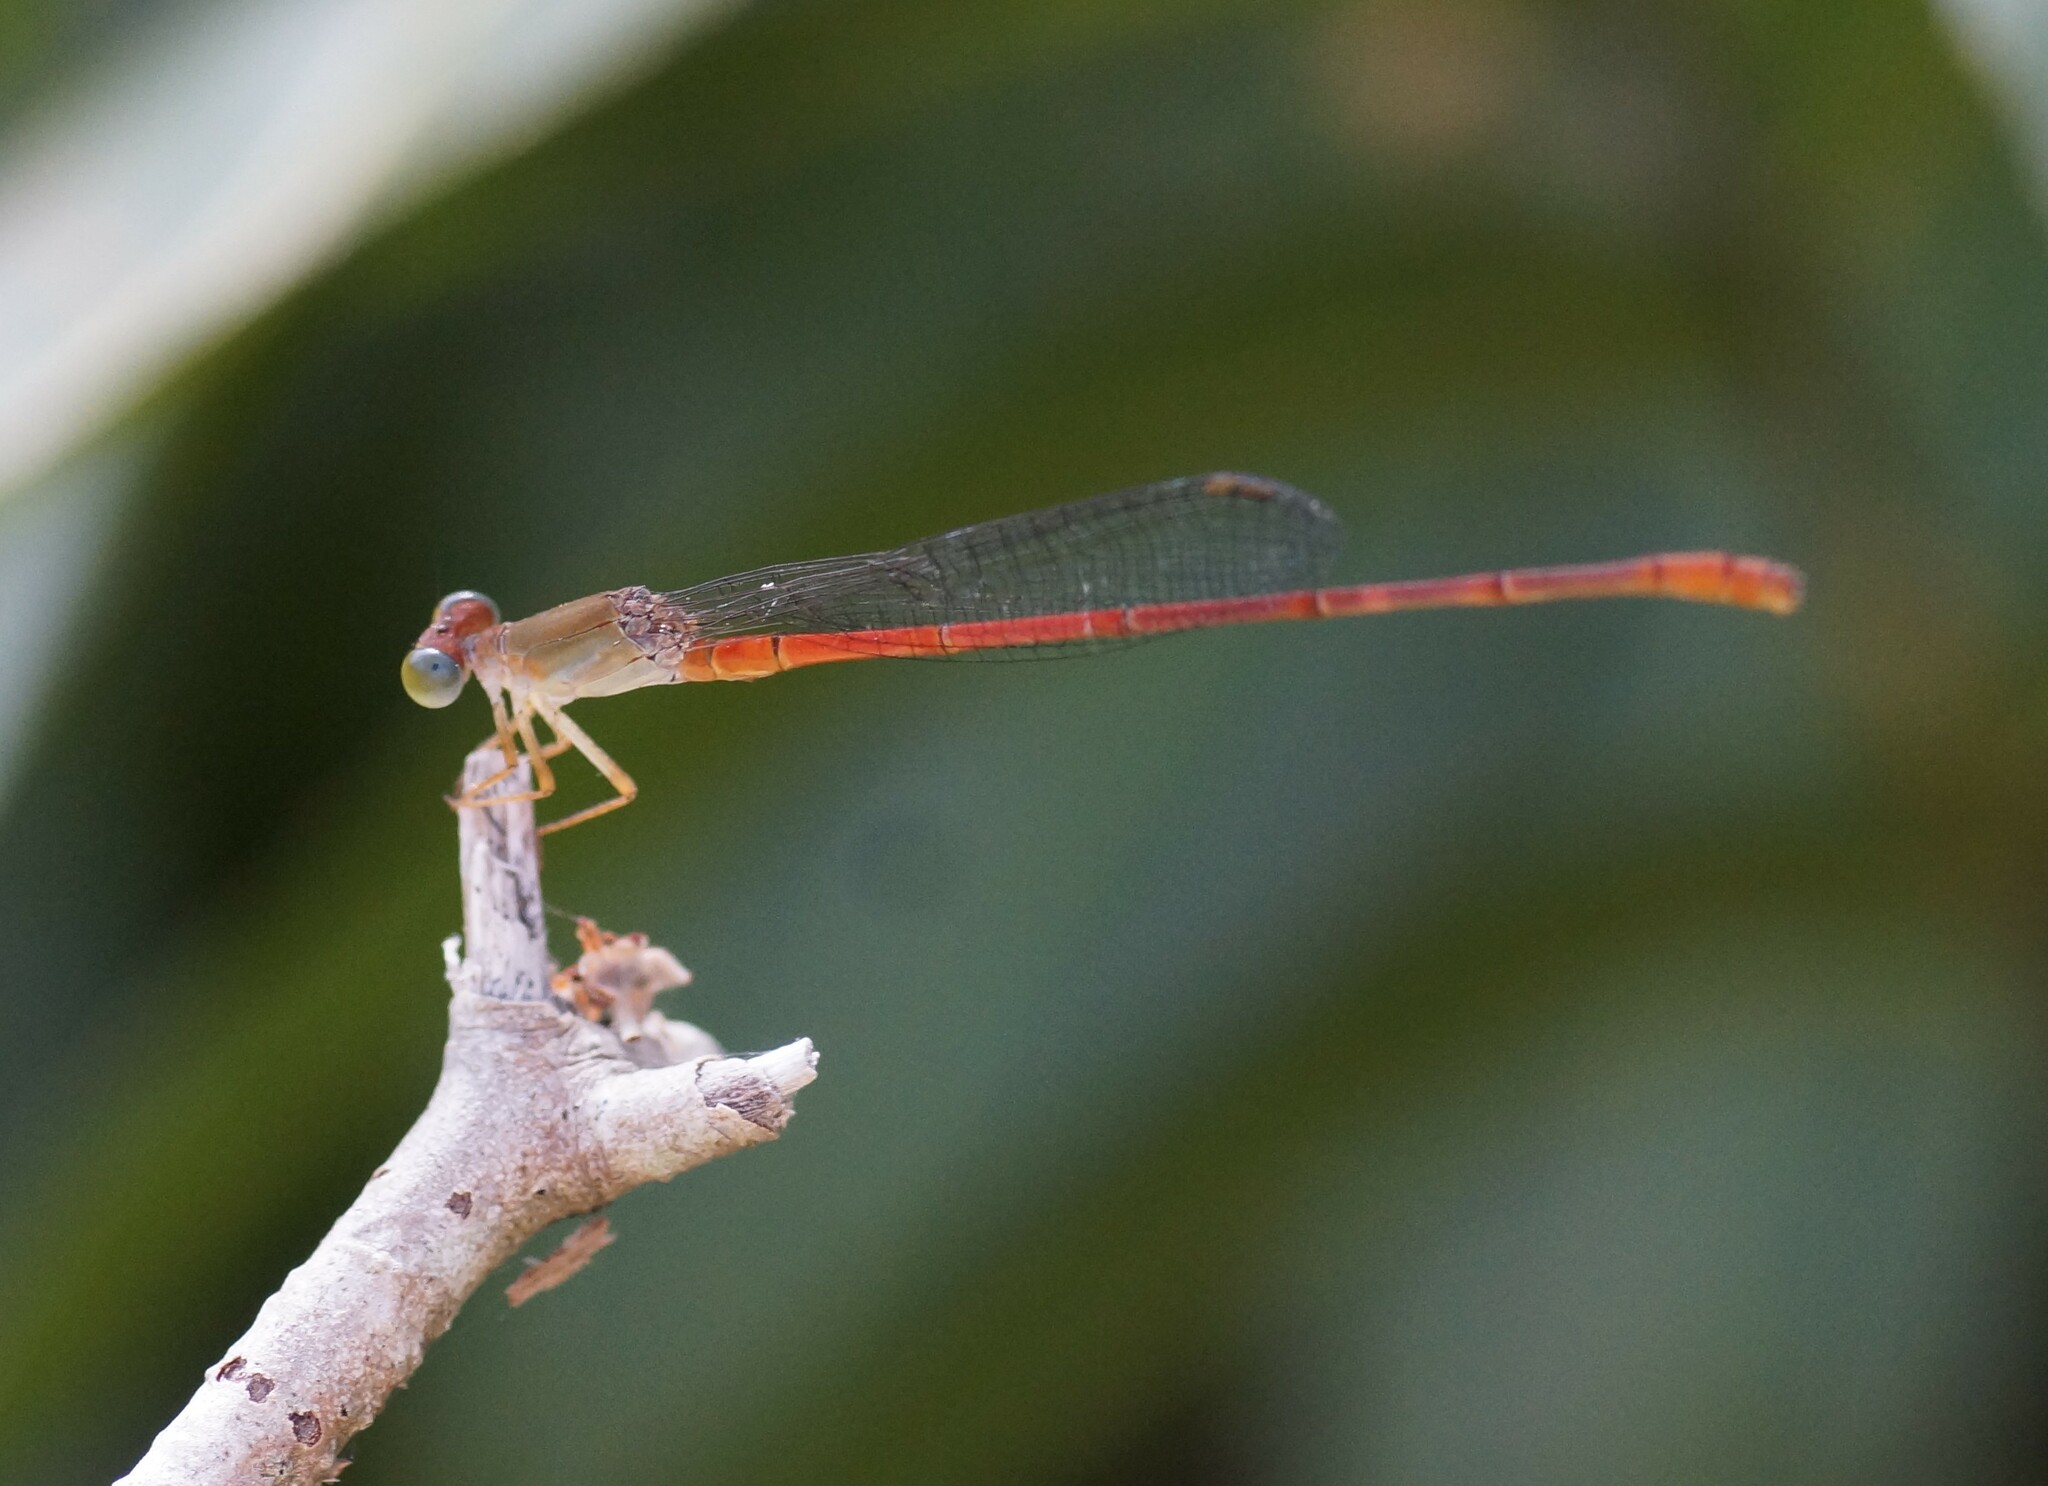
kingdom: Animalia
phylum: Arthropoda
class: Insecta
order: Odonata
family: Coenagrionidae
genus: Ceriagrion
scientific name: Ceriagrion aeruginosum
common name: Redtail
